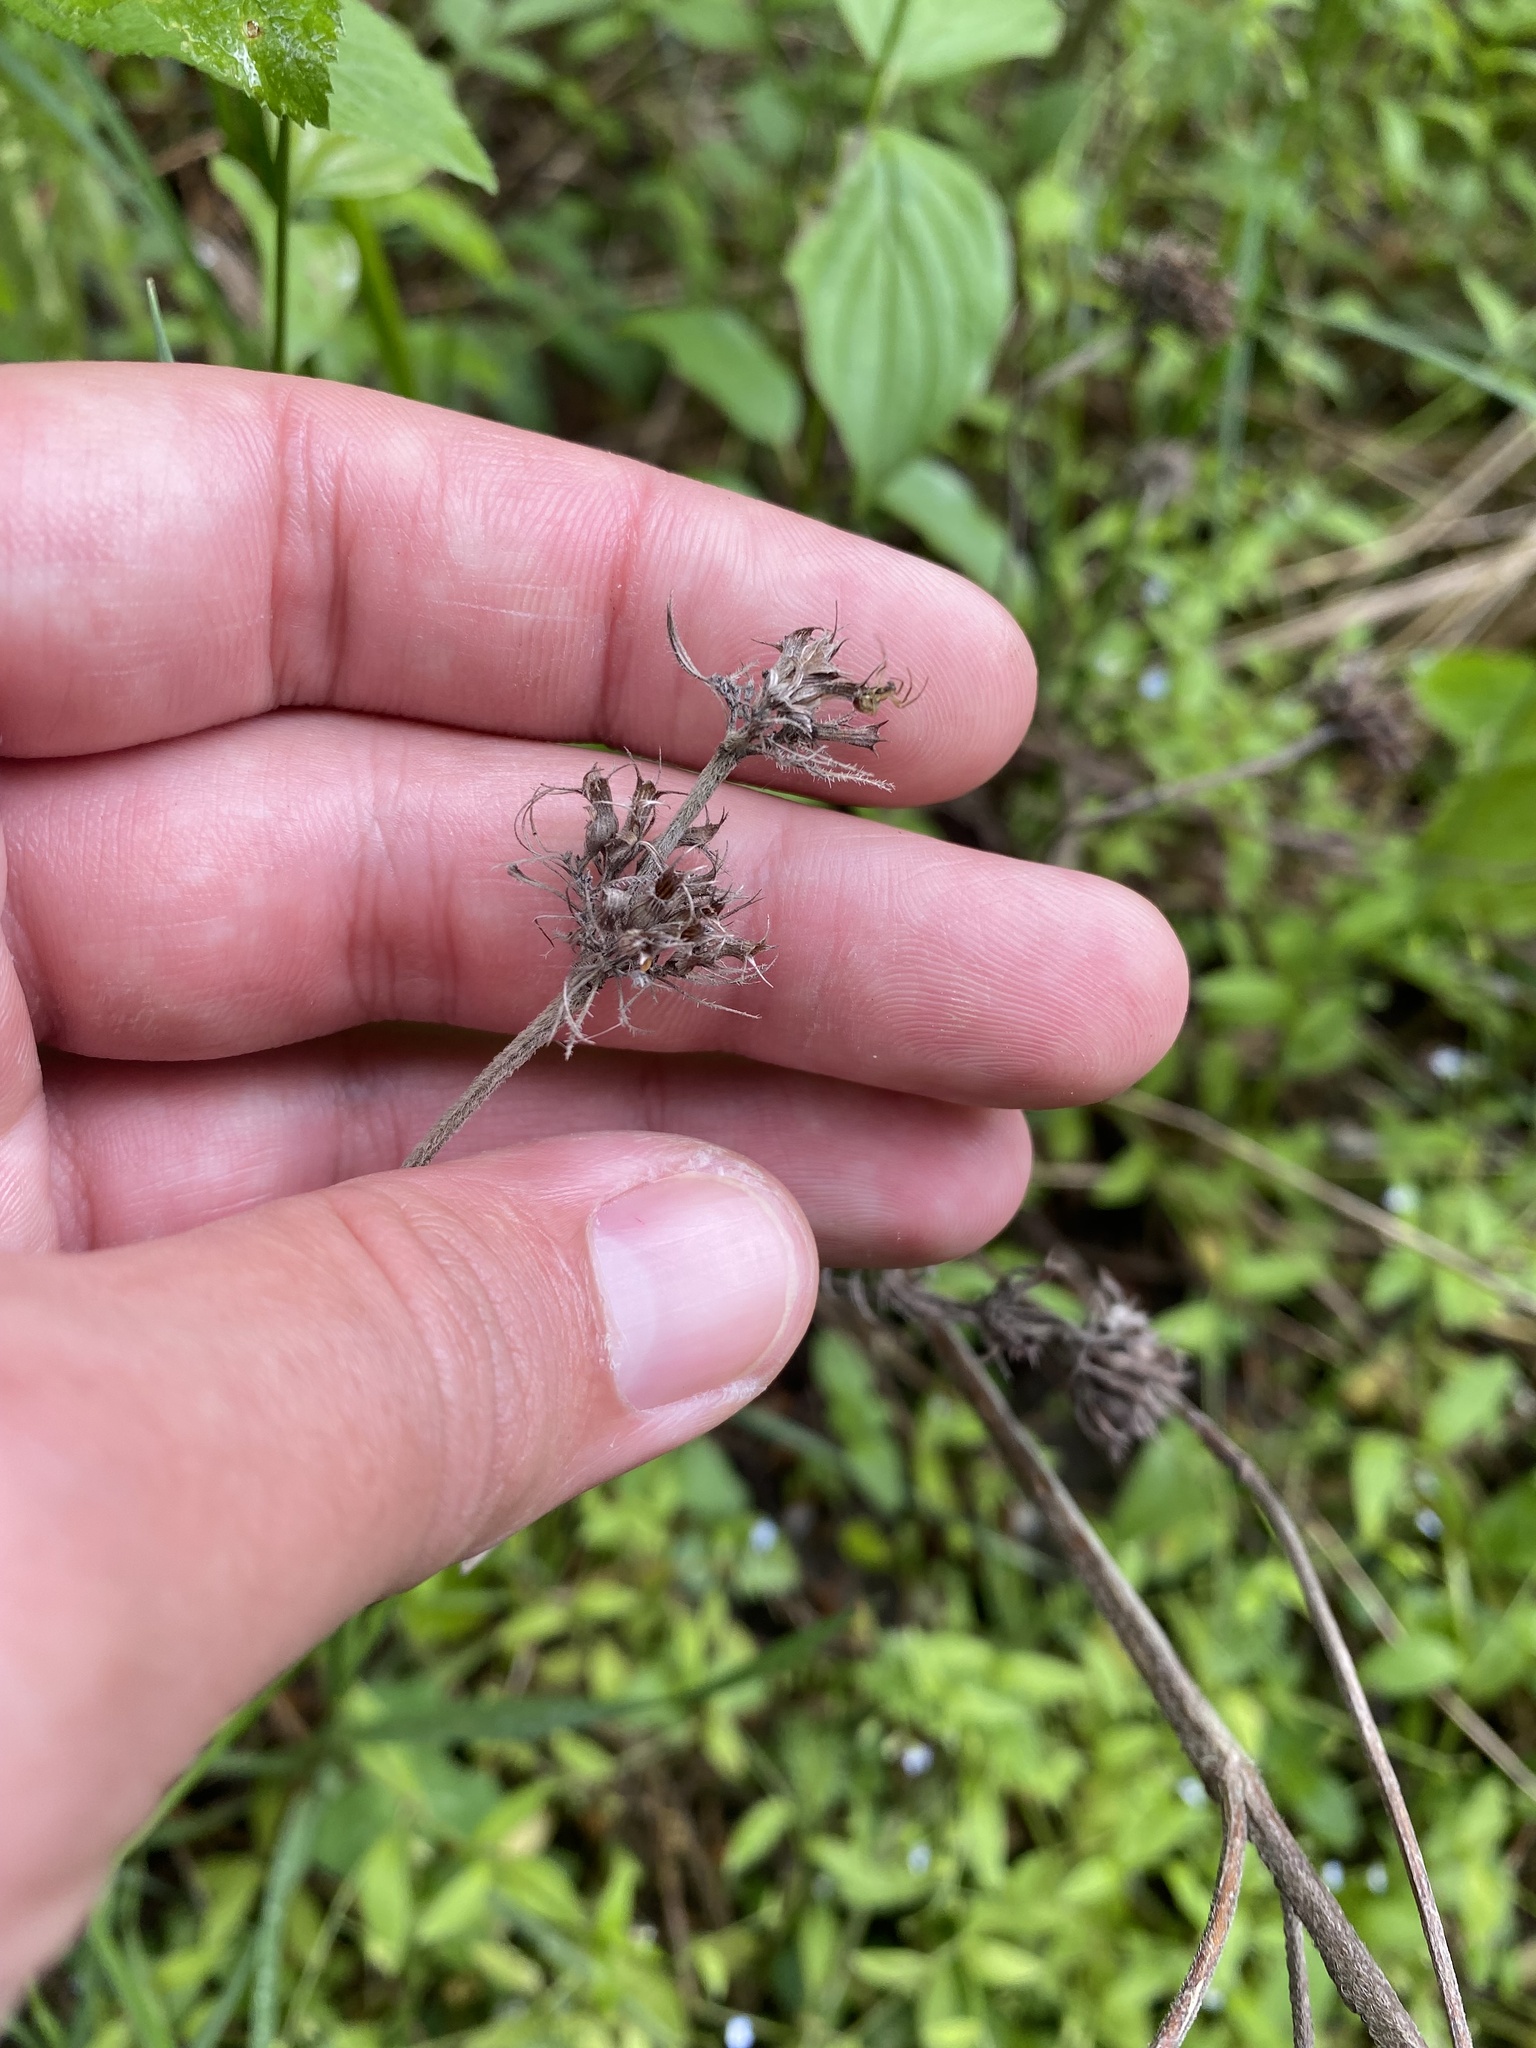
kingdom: Plantae
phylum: Tracheophyta
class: Magnoliopsida
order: Lamiales
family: Lamiaceae
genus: Clinopodium
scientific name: Clinopodium caucasicum
